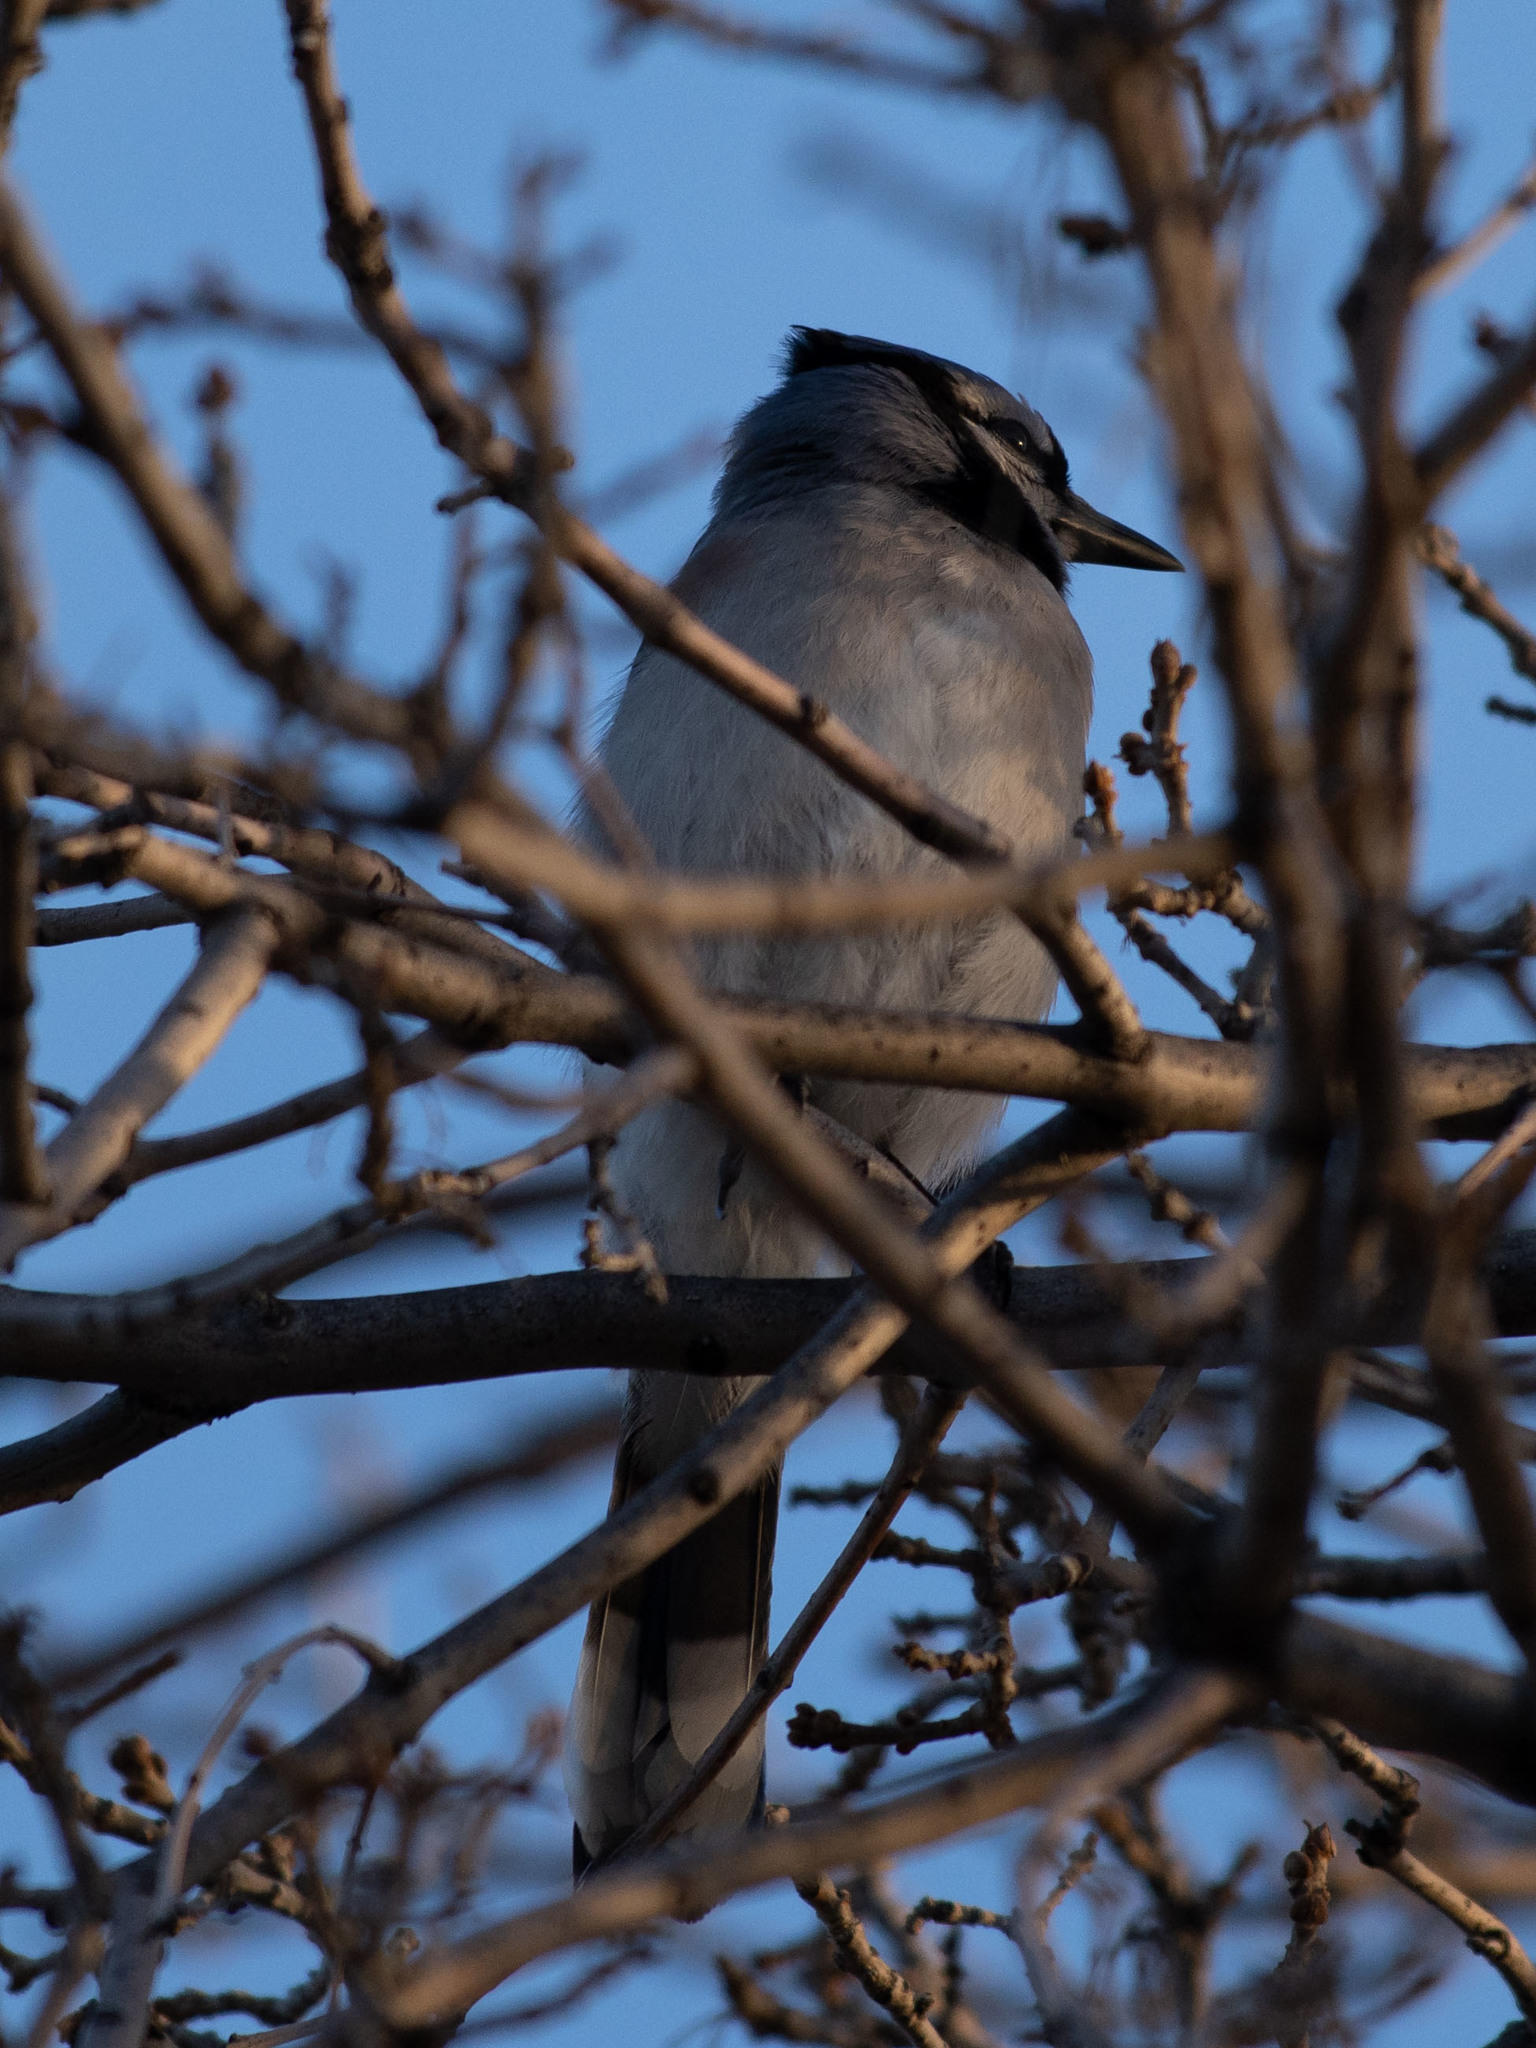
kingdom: Animalia
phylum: Chordata
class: Aves
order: Passeriformes
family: Corvidae
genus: Cyanocitta
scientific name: Cyanocitta cristata
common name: Blue jay
